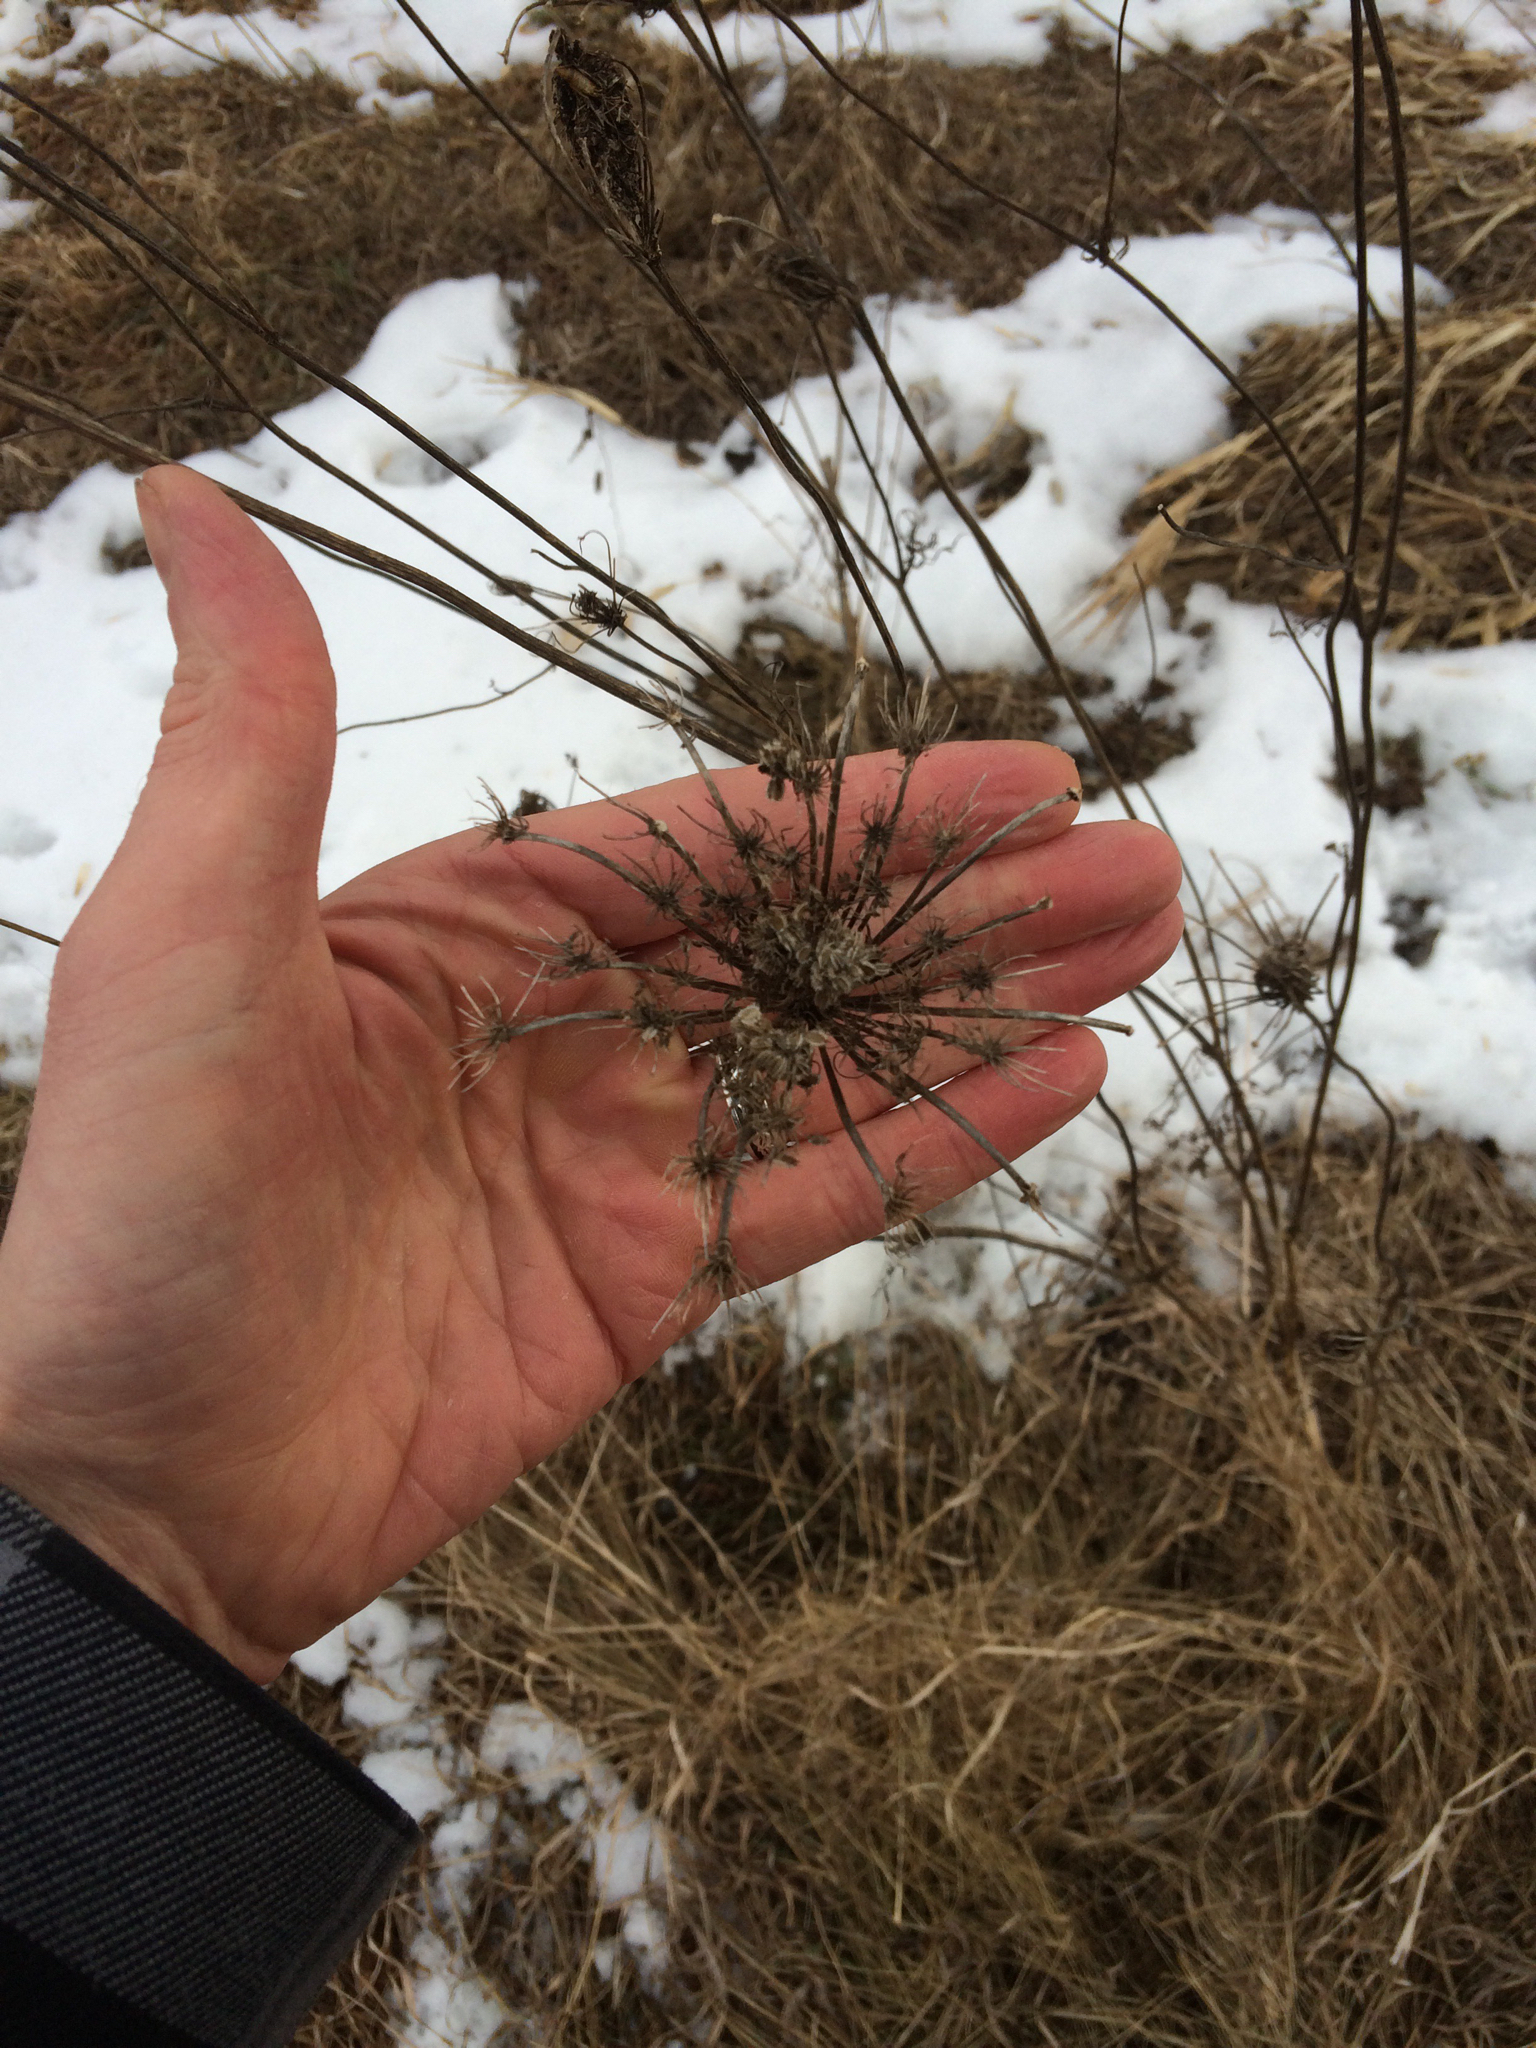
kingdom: Plantae
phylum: Tracheophyta
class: Magnoliopsida
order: Apiales
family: Apiaceae
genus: Daucus
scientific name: Daucus carota
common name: Wild carrot
